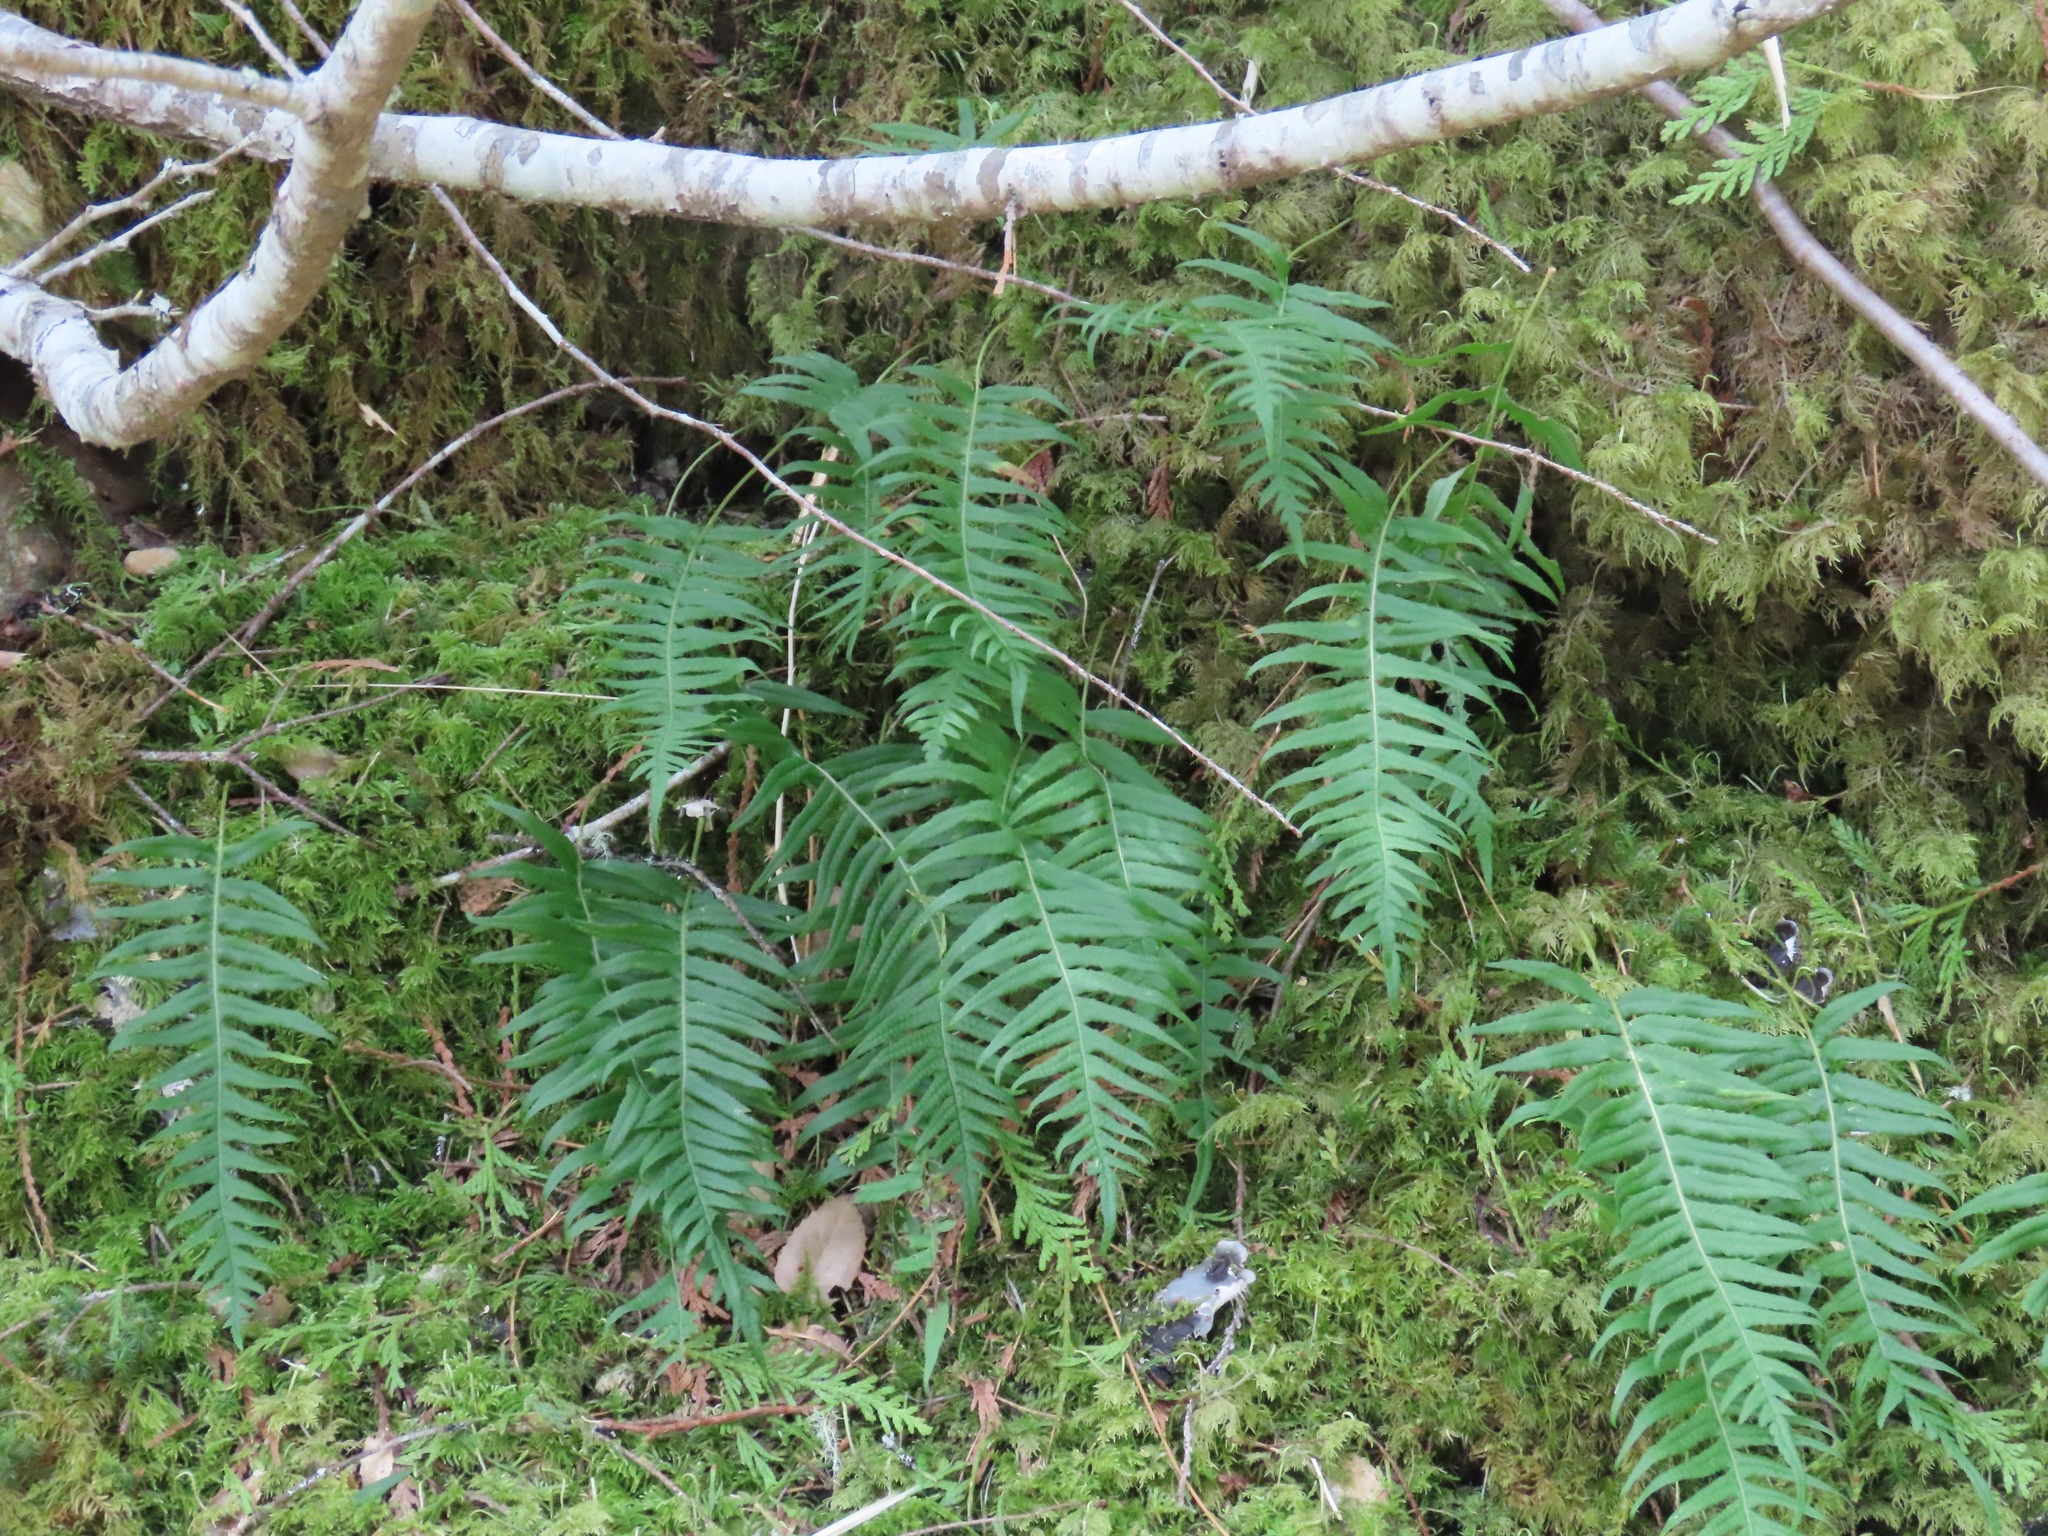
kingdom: Plantae
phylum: Tracheophyta
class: Polypodiopsida
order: Polypodiales
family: Polypodiaceae
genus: Polypodium
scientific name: Polypodium glycyrrhiza
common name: Licorice fern
